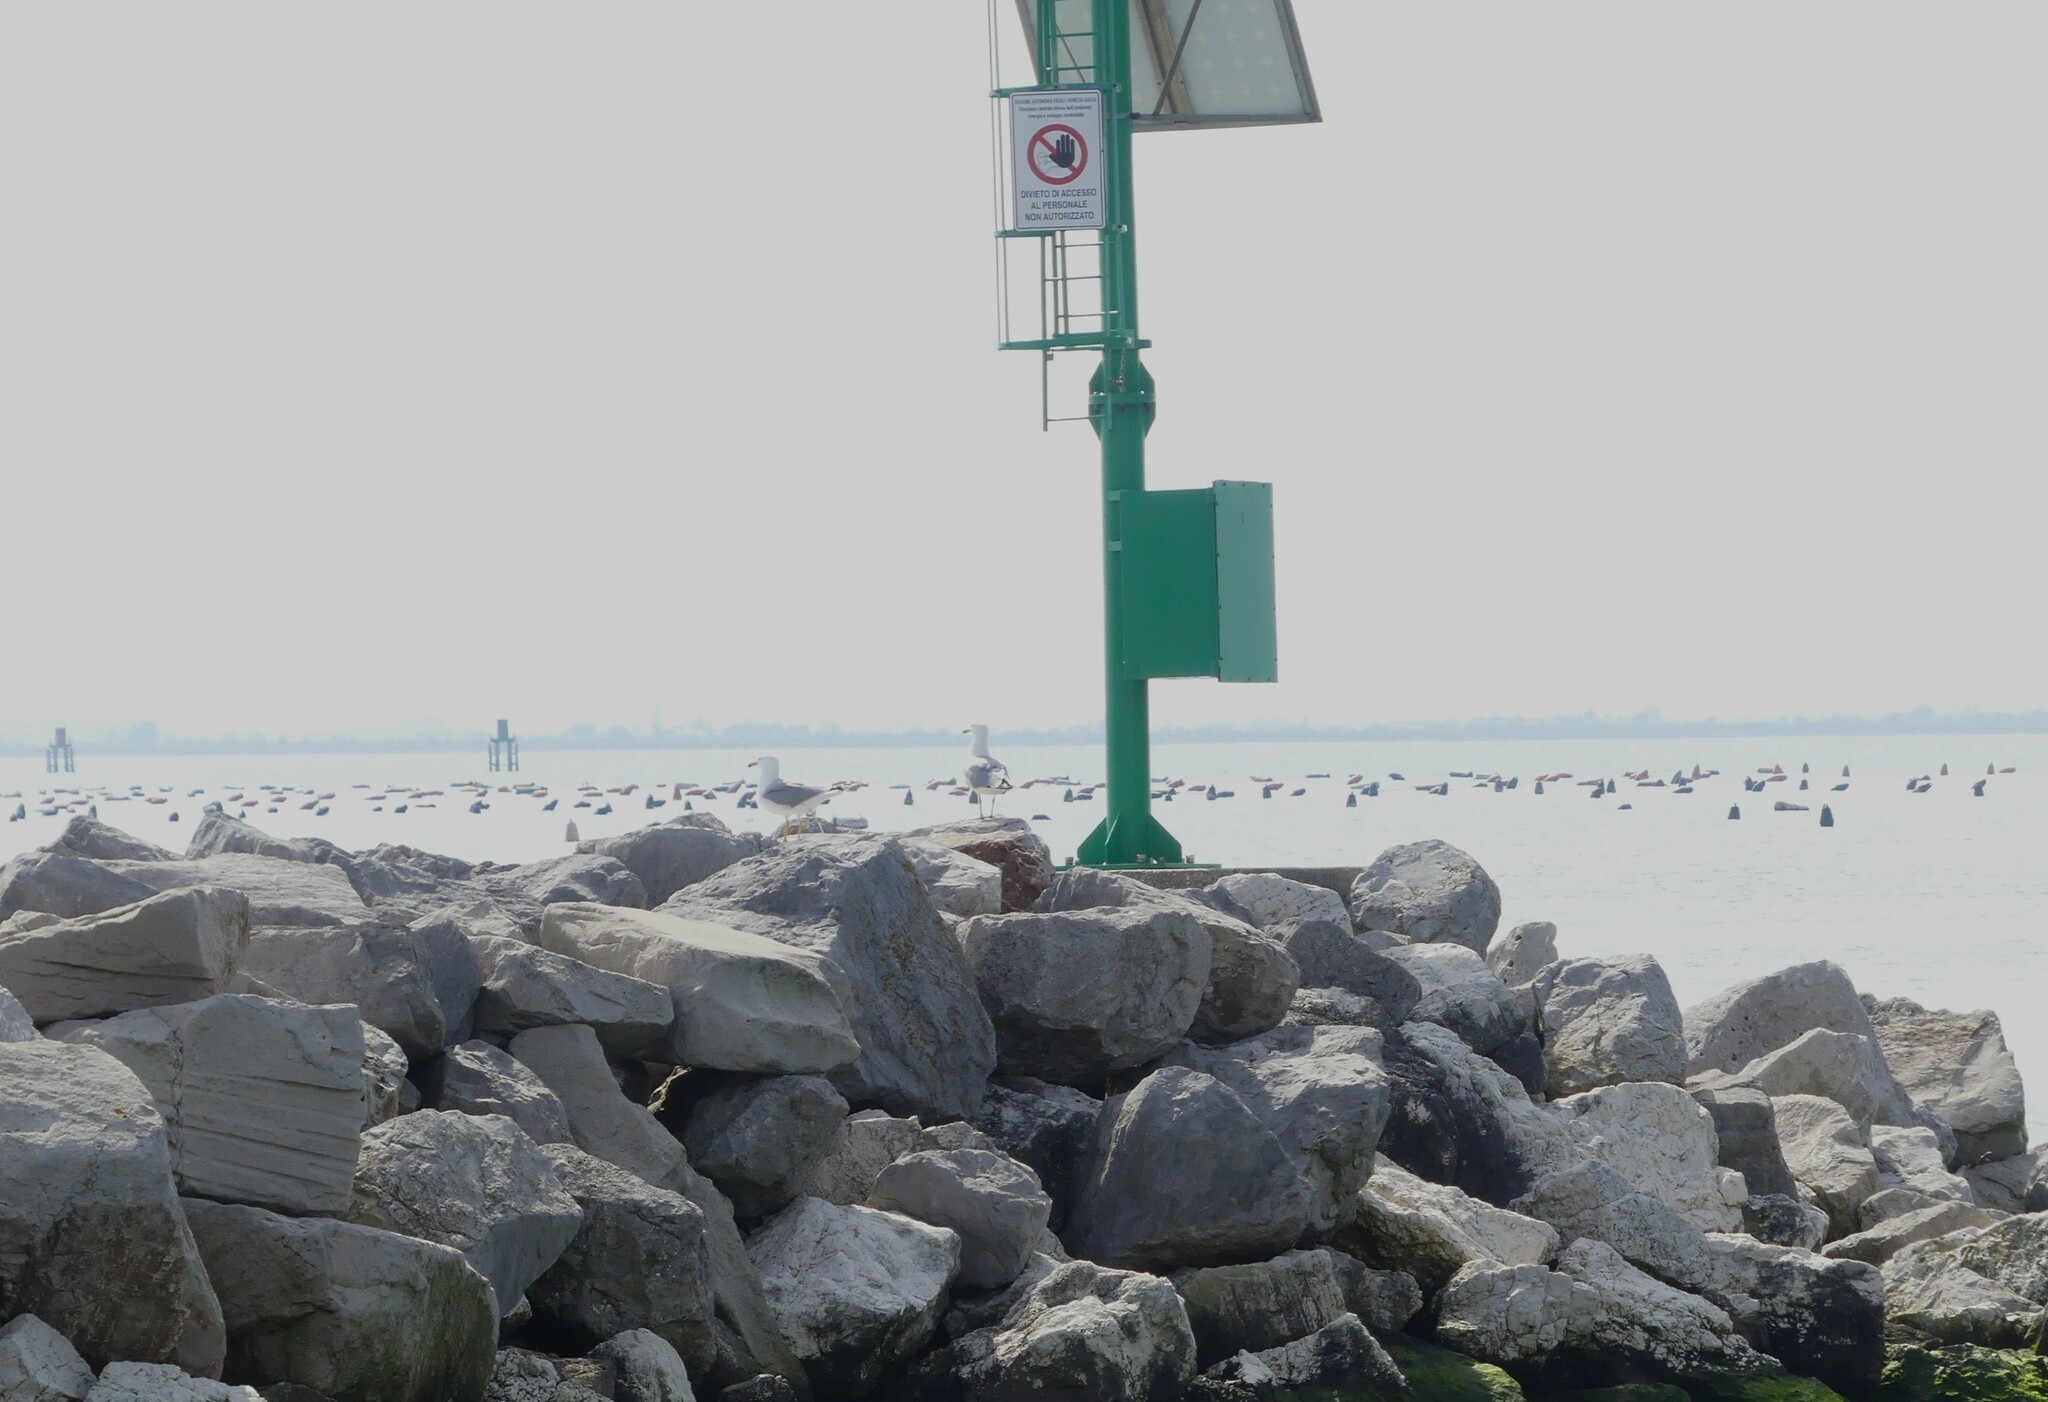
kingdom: Animalia
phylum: Chordata
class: Aves
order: Charadriiformes
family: Laridae
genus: Larus
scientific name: Larus michahellis
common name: Yellow-legged gull
